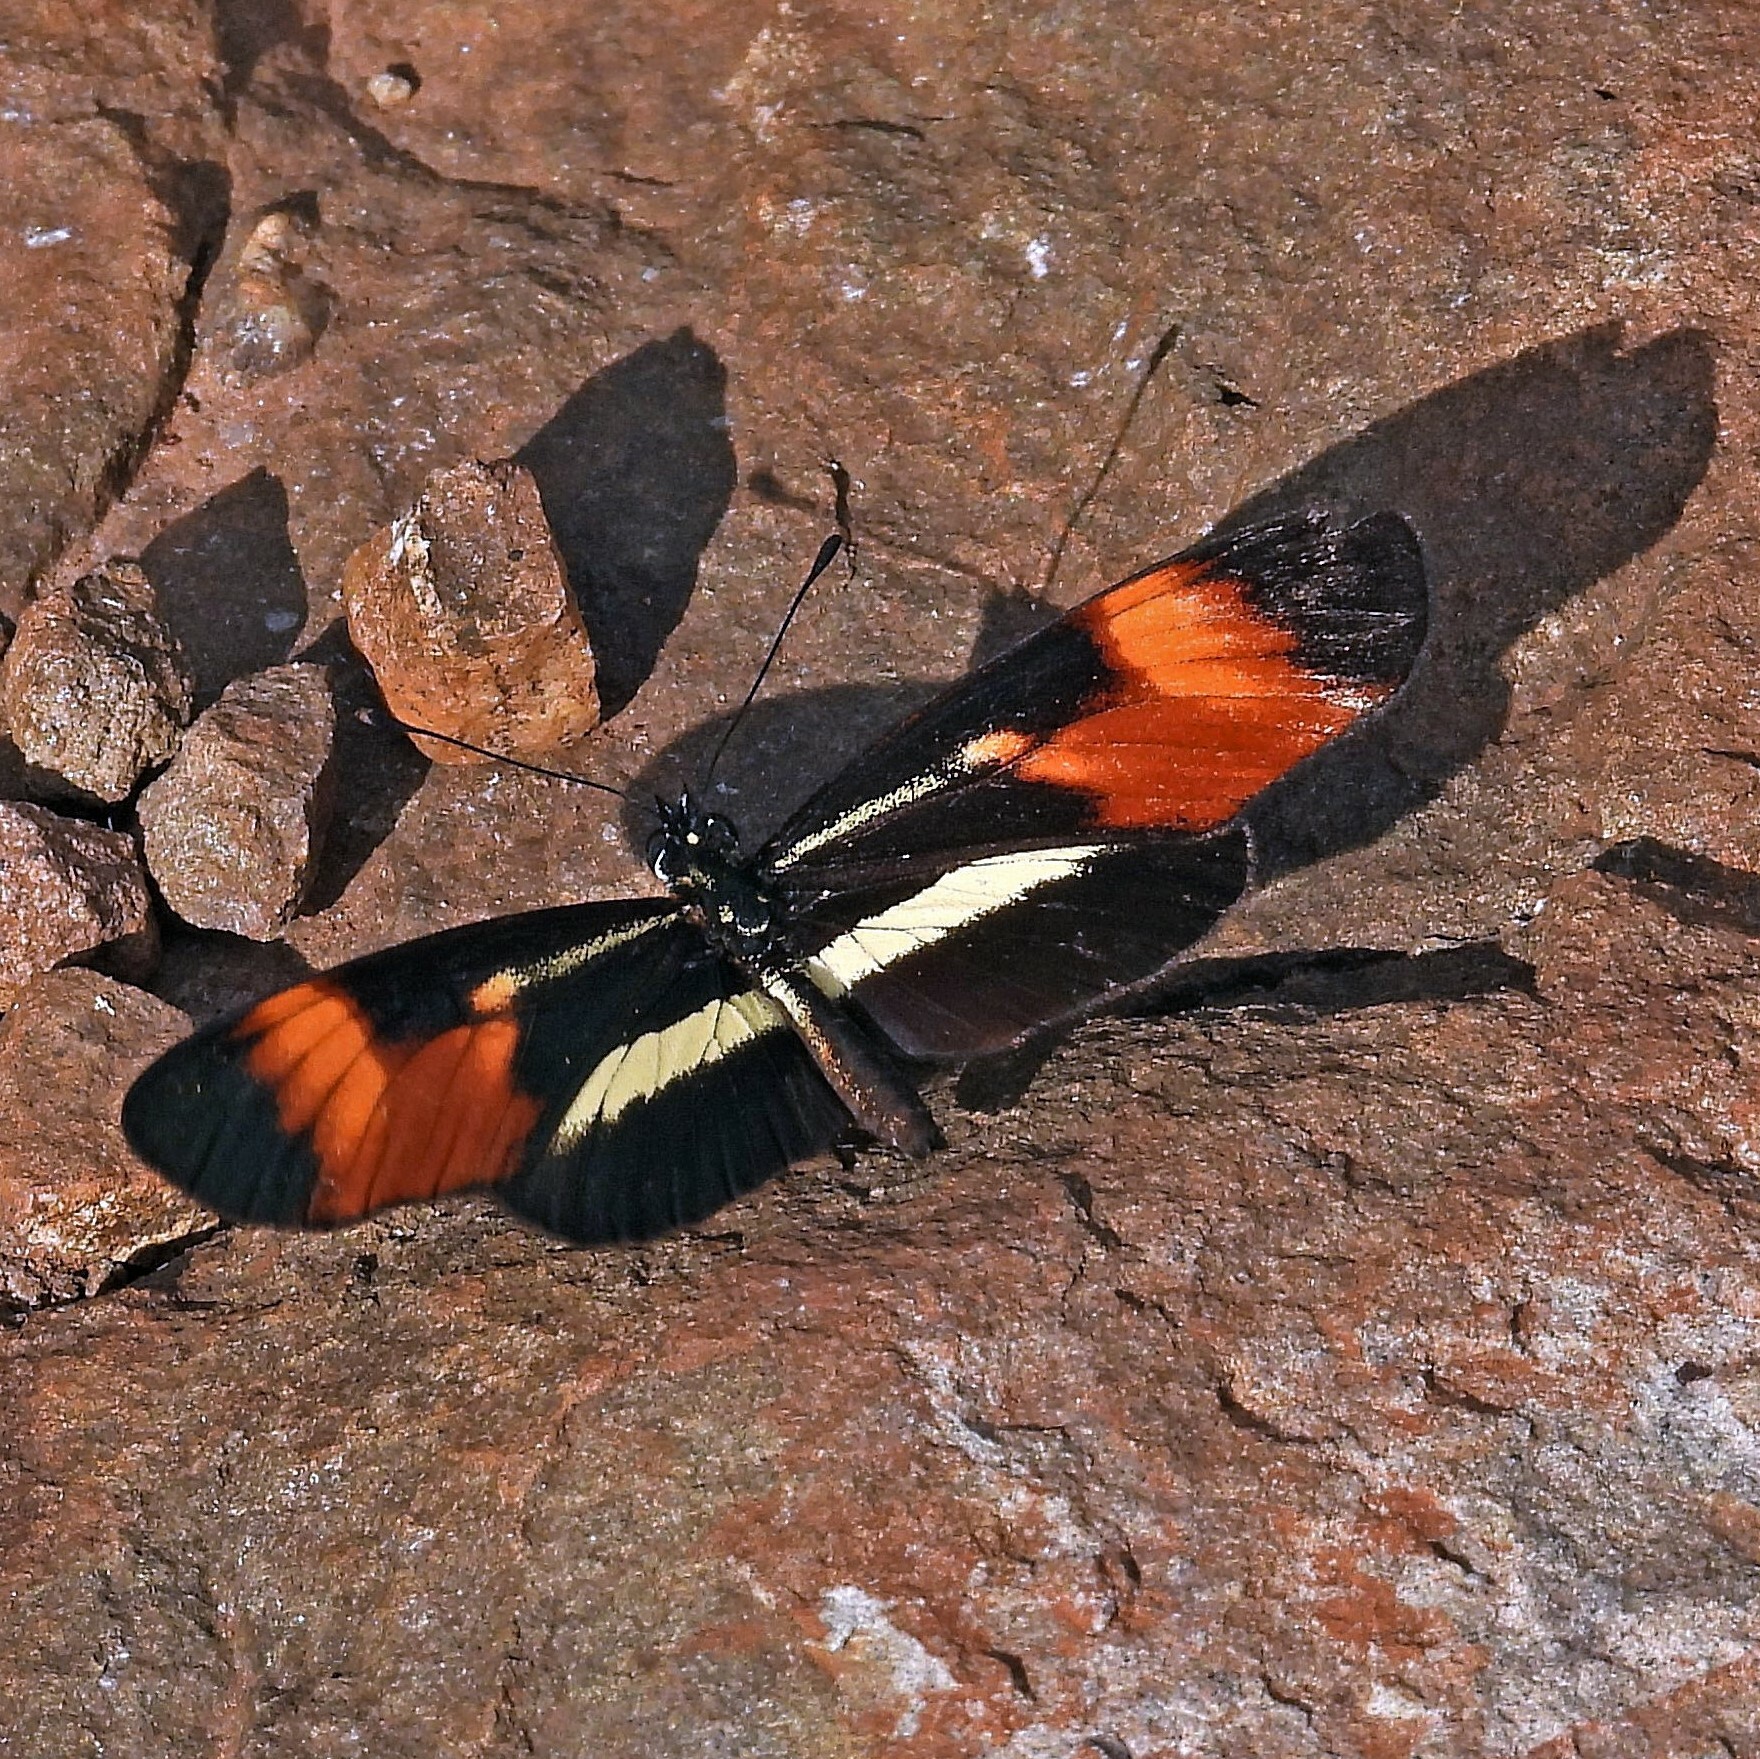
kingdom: Animalia
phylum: Arthropoda
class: Insecta
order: Lepidoptera
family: Nymphalidae
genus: Eresia
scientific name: Eresia lansdorfi
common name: Lansdorf's crescent
